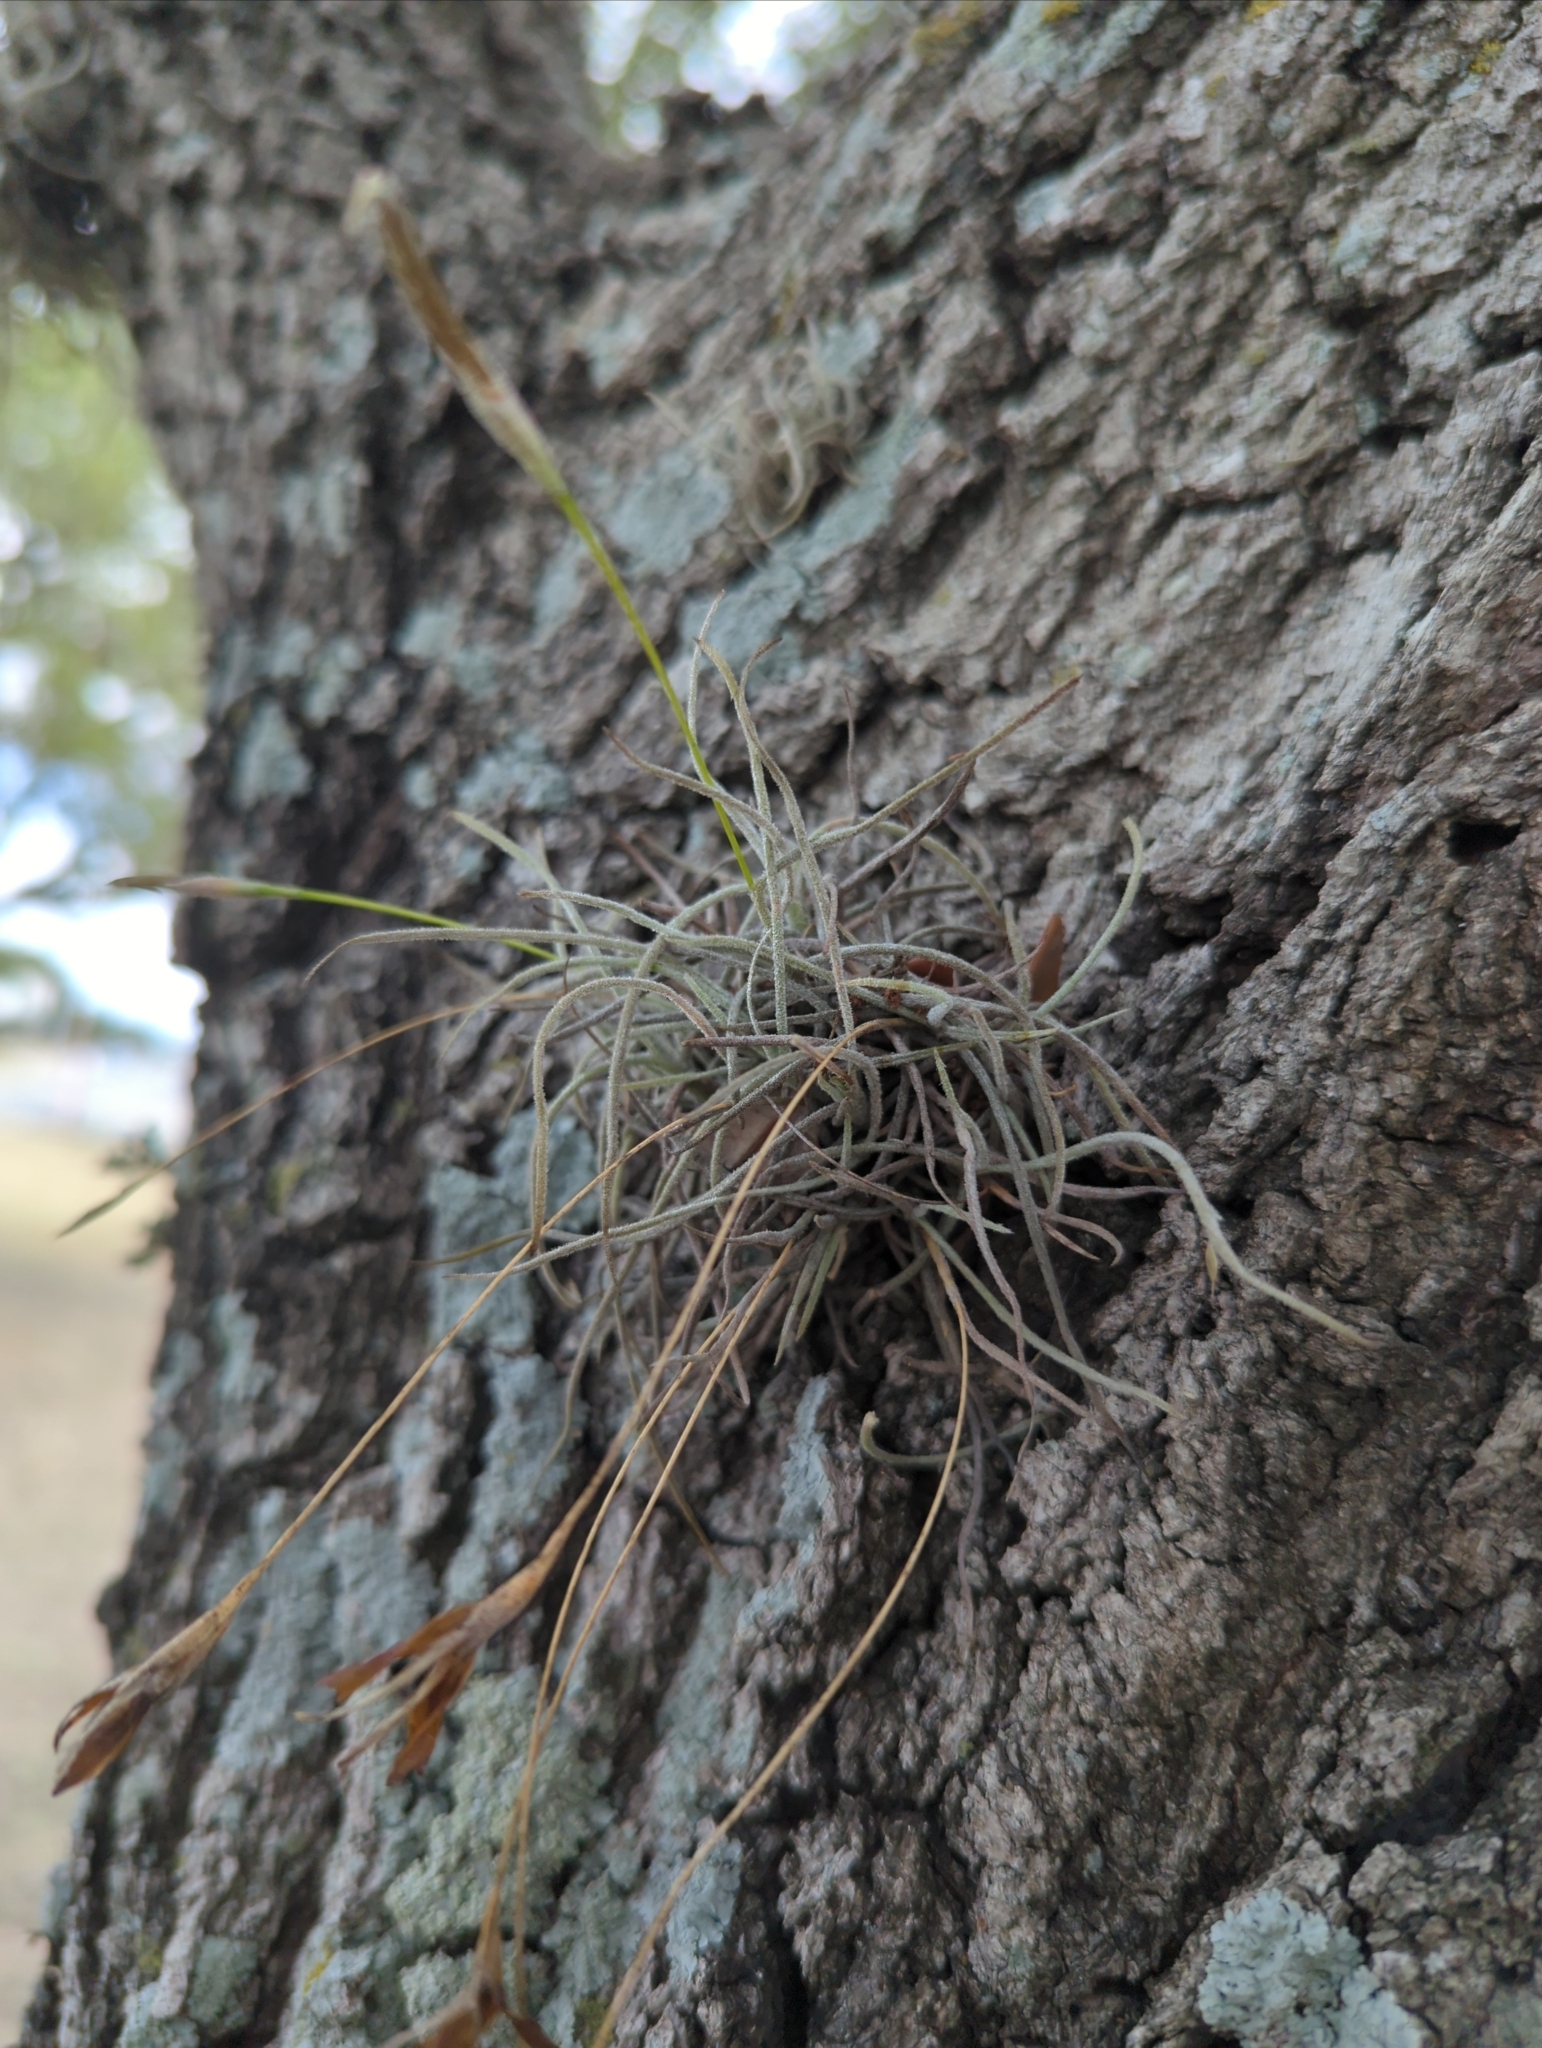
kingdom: Plantae
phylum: Tracheophyta
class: Liliopsida
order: Poales
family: Bromeliaceae
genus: Tillandsia
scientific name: Tillandsia recurvata
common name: Small ballmoss
